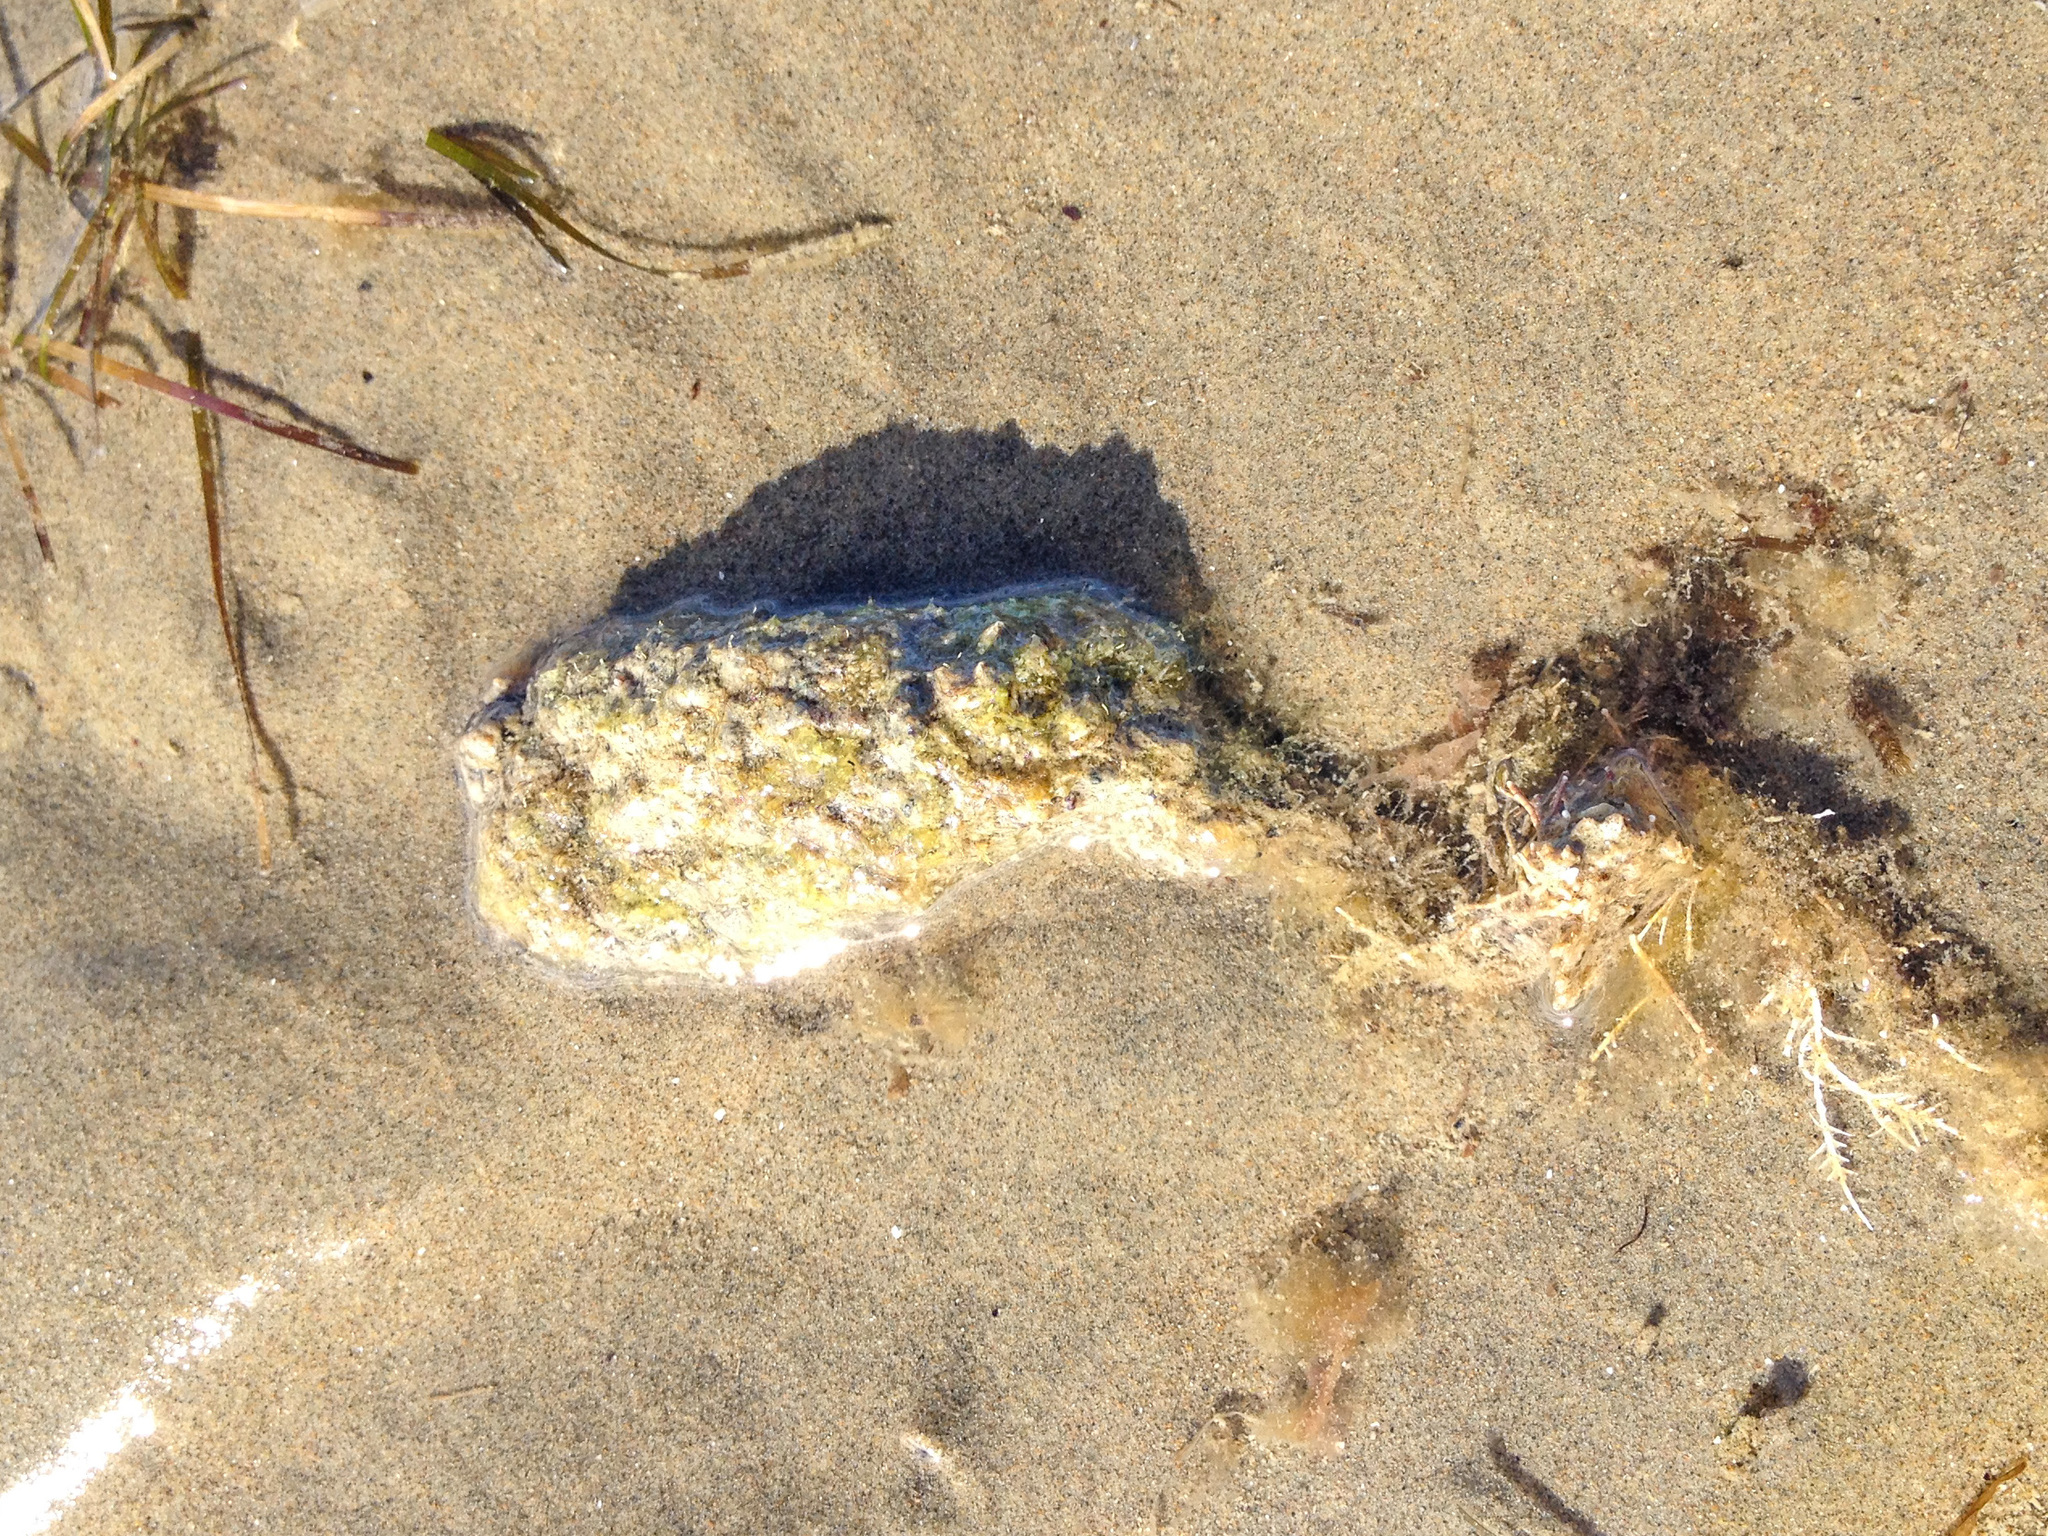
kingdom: Animalia
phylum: Chordata
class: Ascidiacea
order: Stolidobranchia
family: Styelidae
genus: Styela
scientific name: Styela clava
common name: Leathery sea squirt
